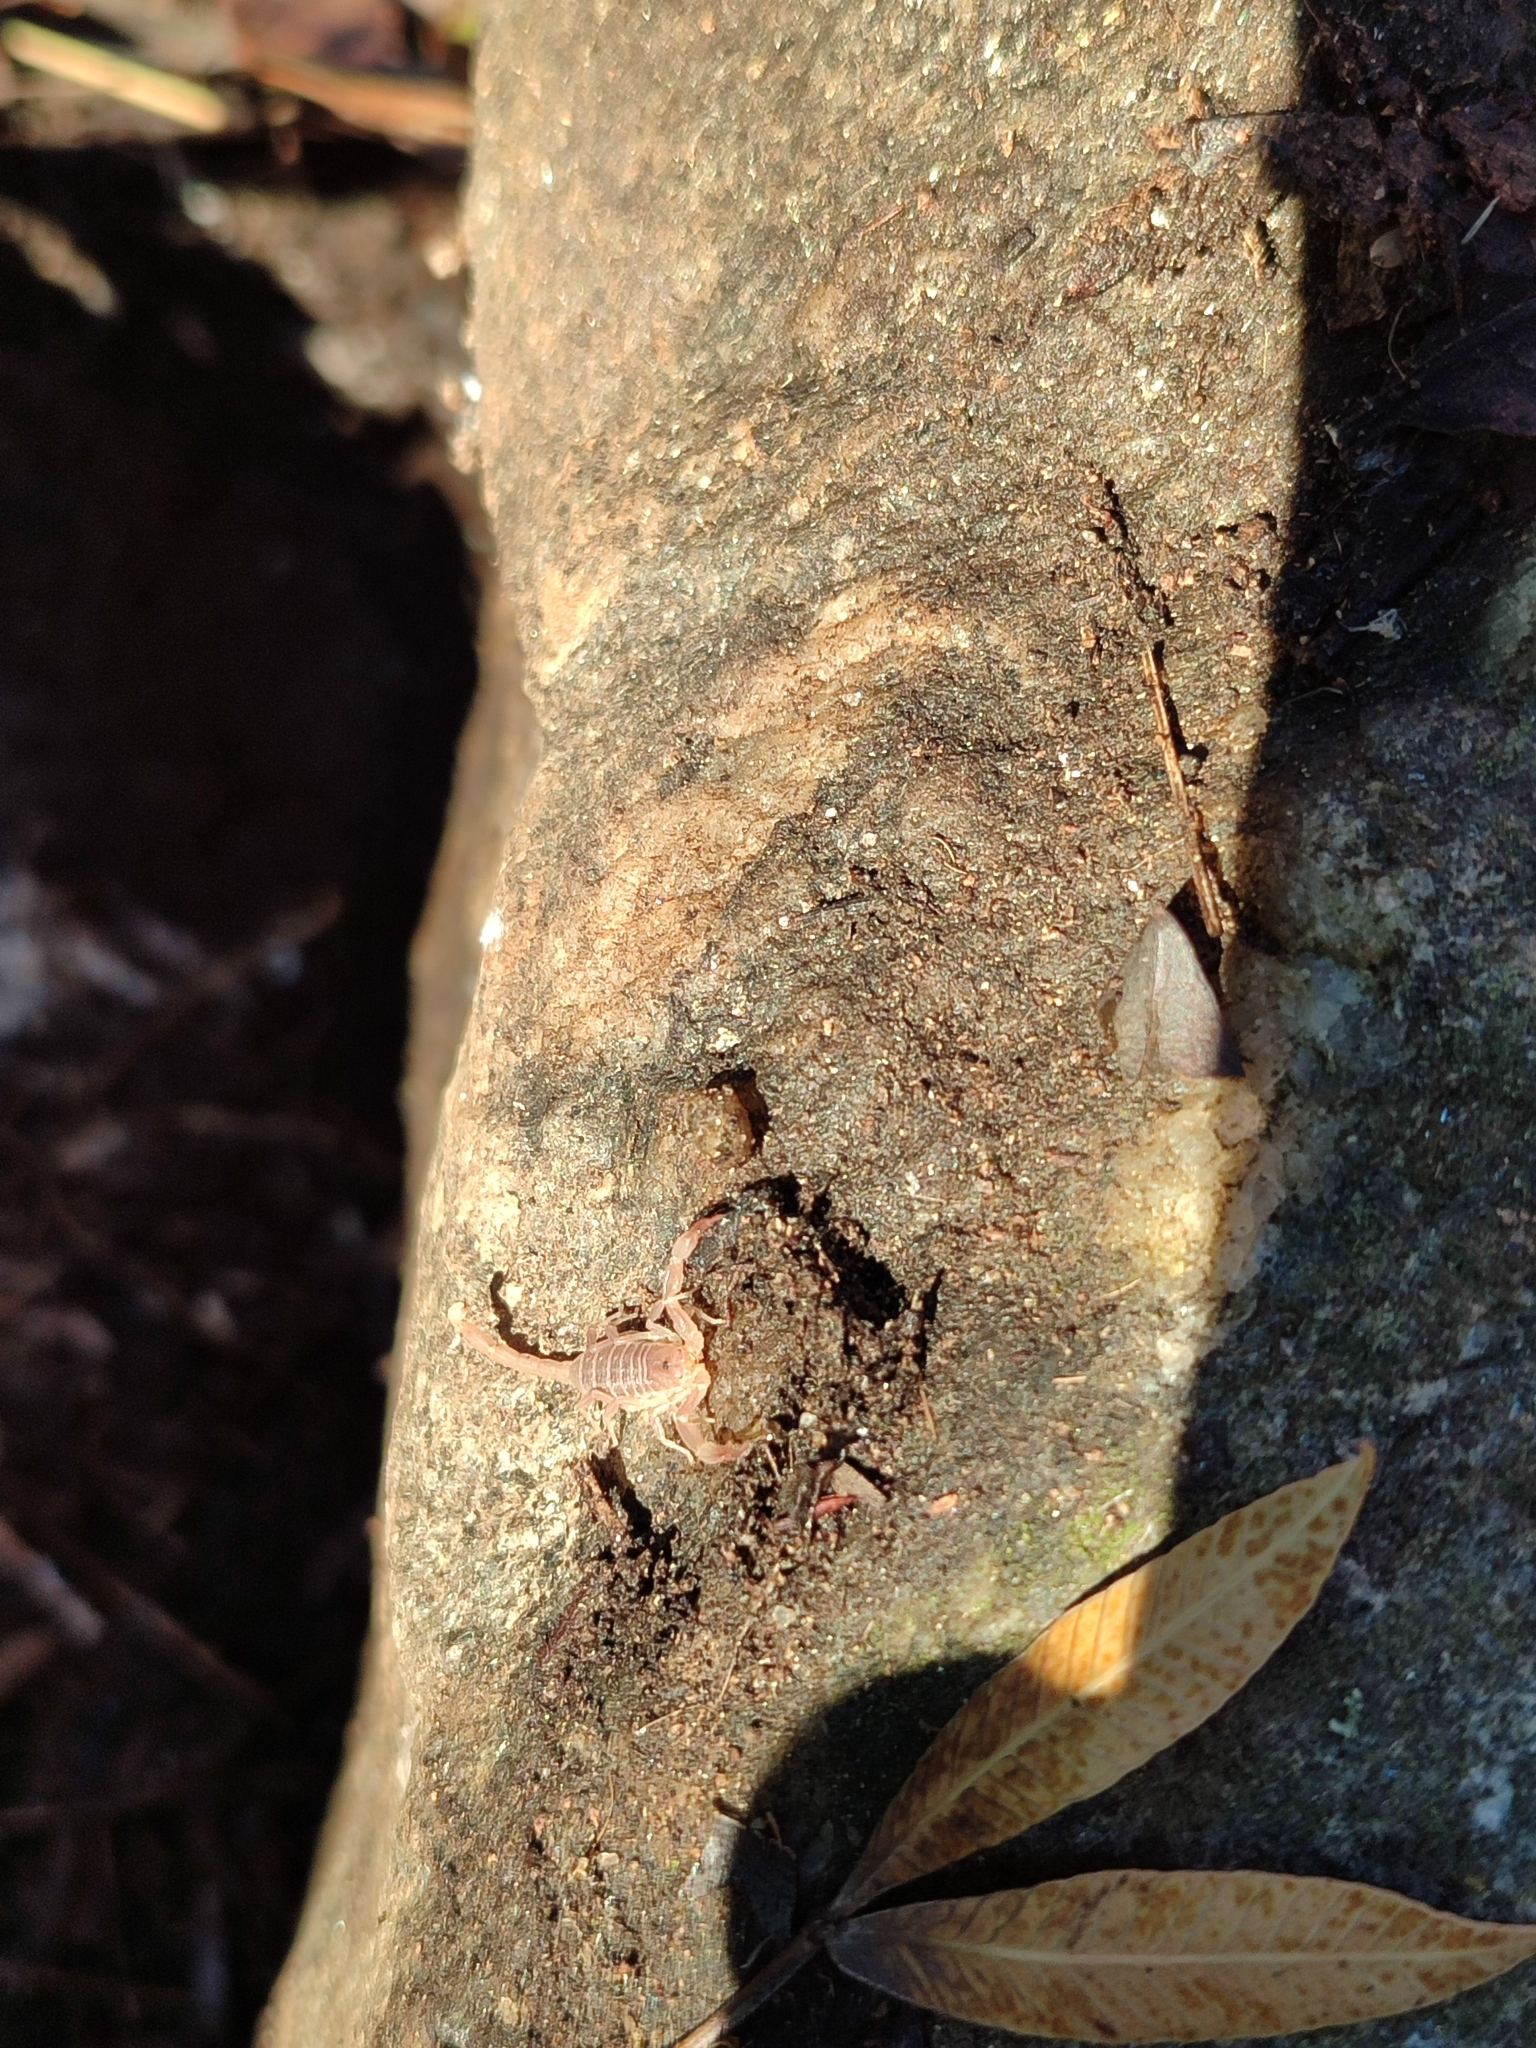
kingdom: Animalia
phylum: Arthropoda
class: Arachnida
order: Scorpiones
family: Buthidae
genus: Zabius
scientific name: Zabius fuscus
